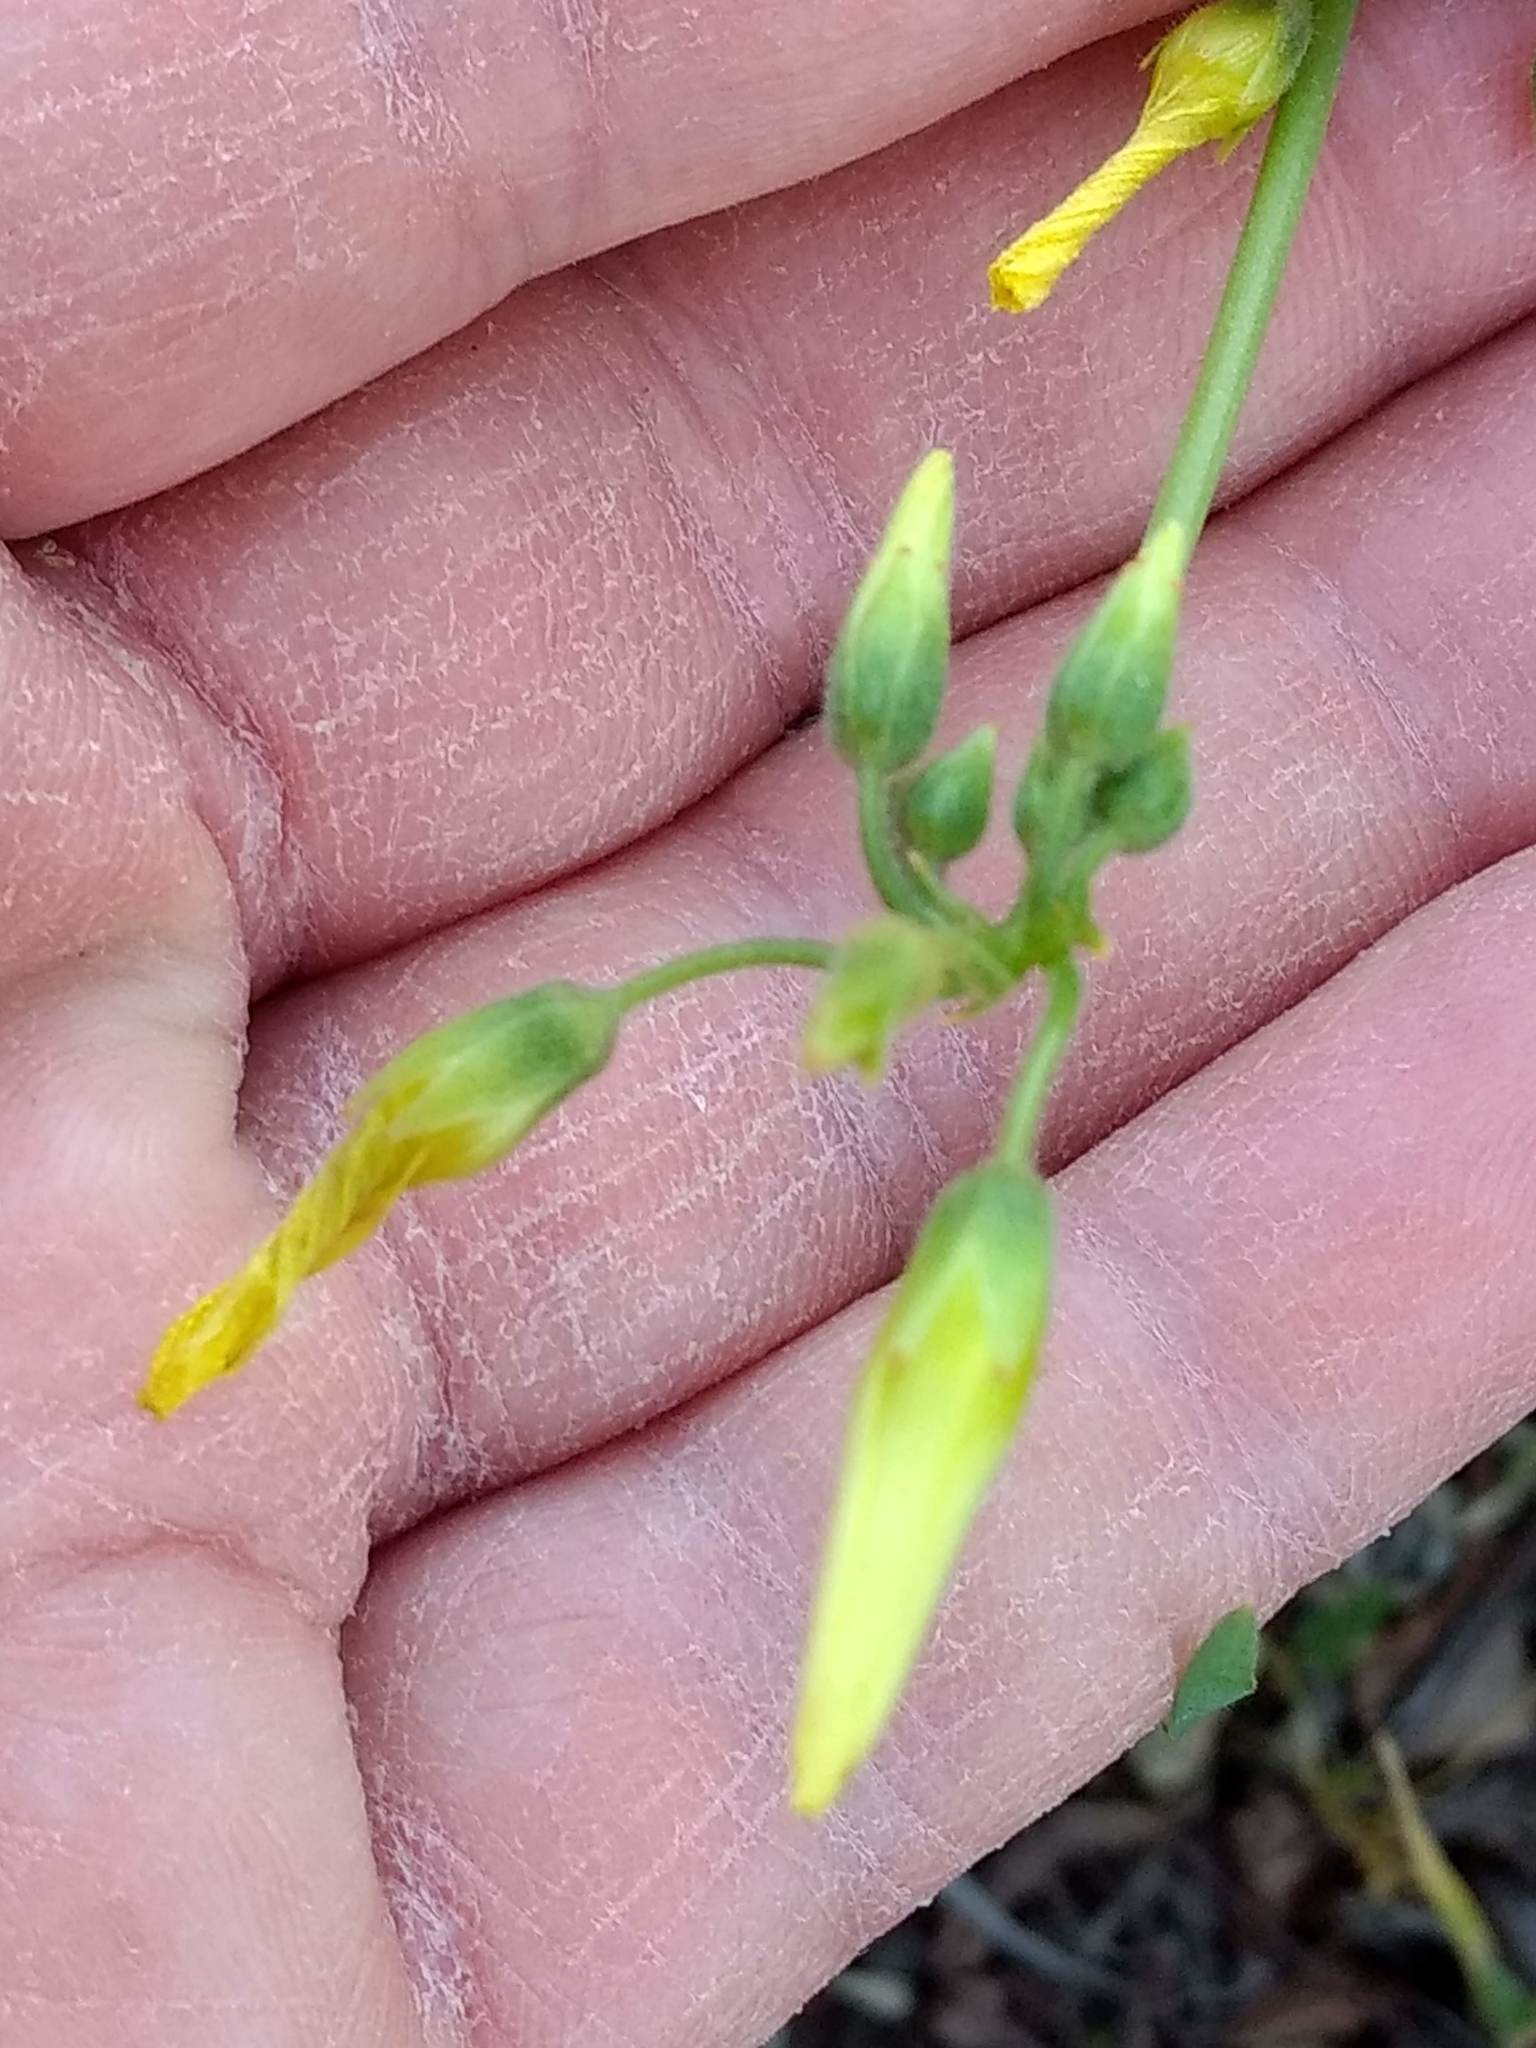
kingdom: Plantae
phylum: Tracheophyta
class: Magnoliopsida
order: Oxalidales
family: Oxalidaceae
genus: Oxalis
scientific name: Oxalis pes-caprae
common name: Bermuda-buttercup
